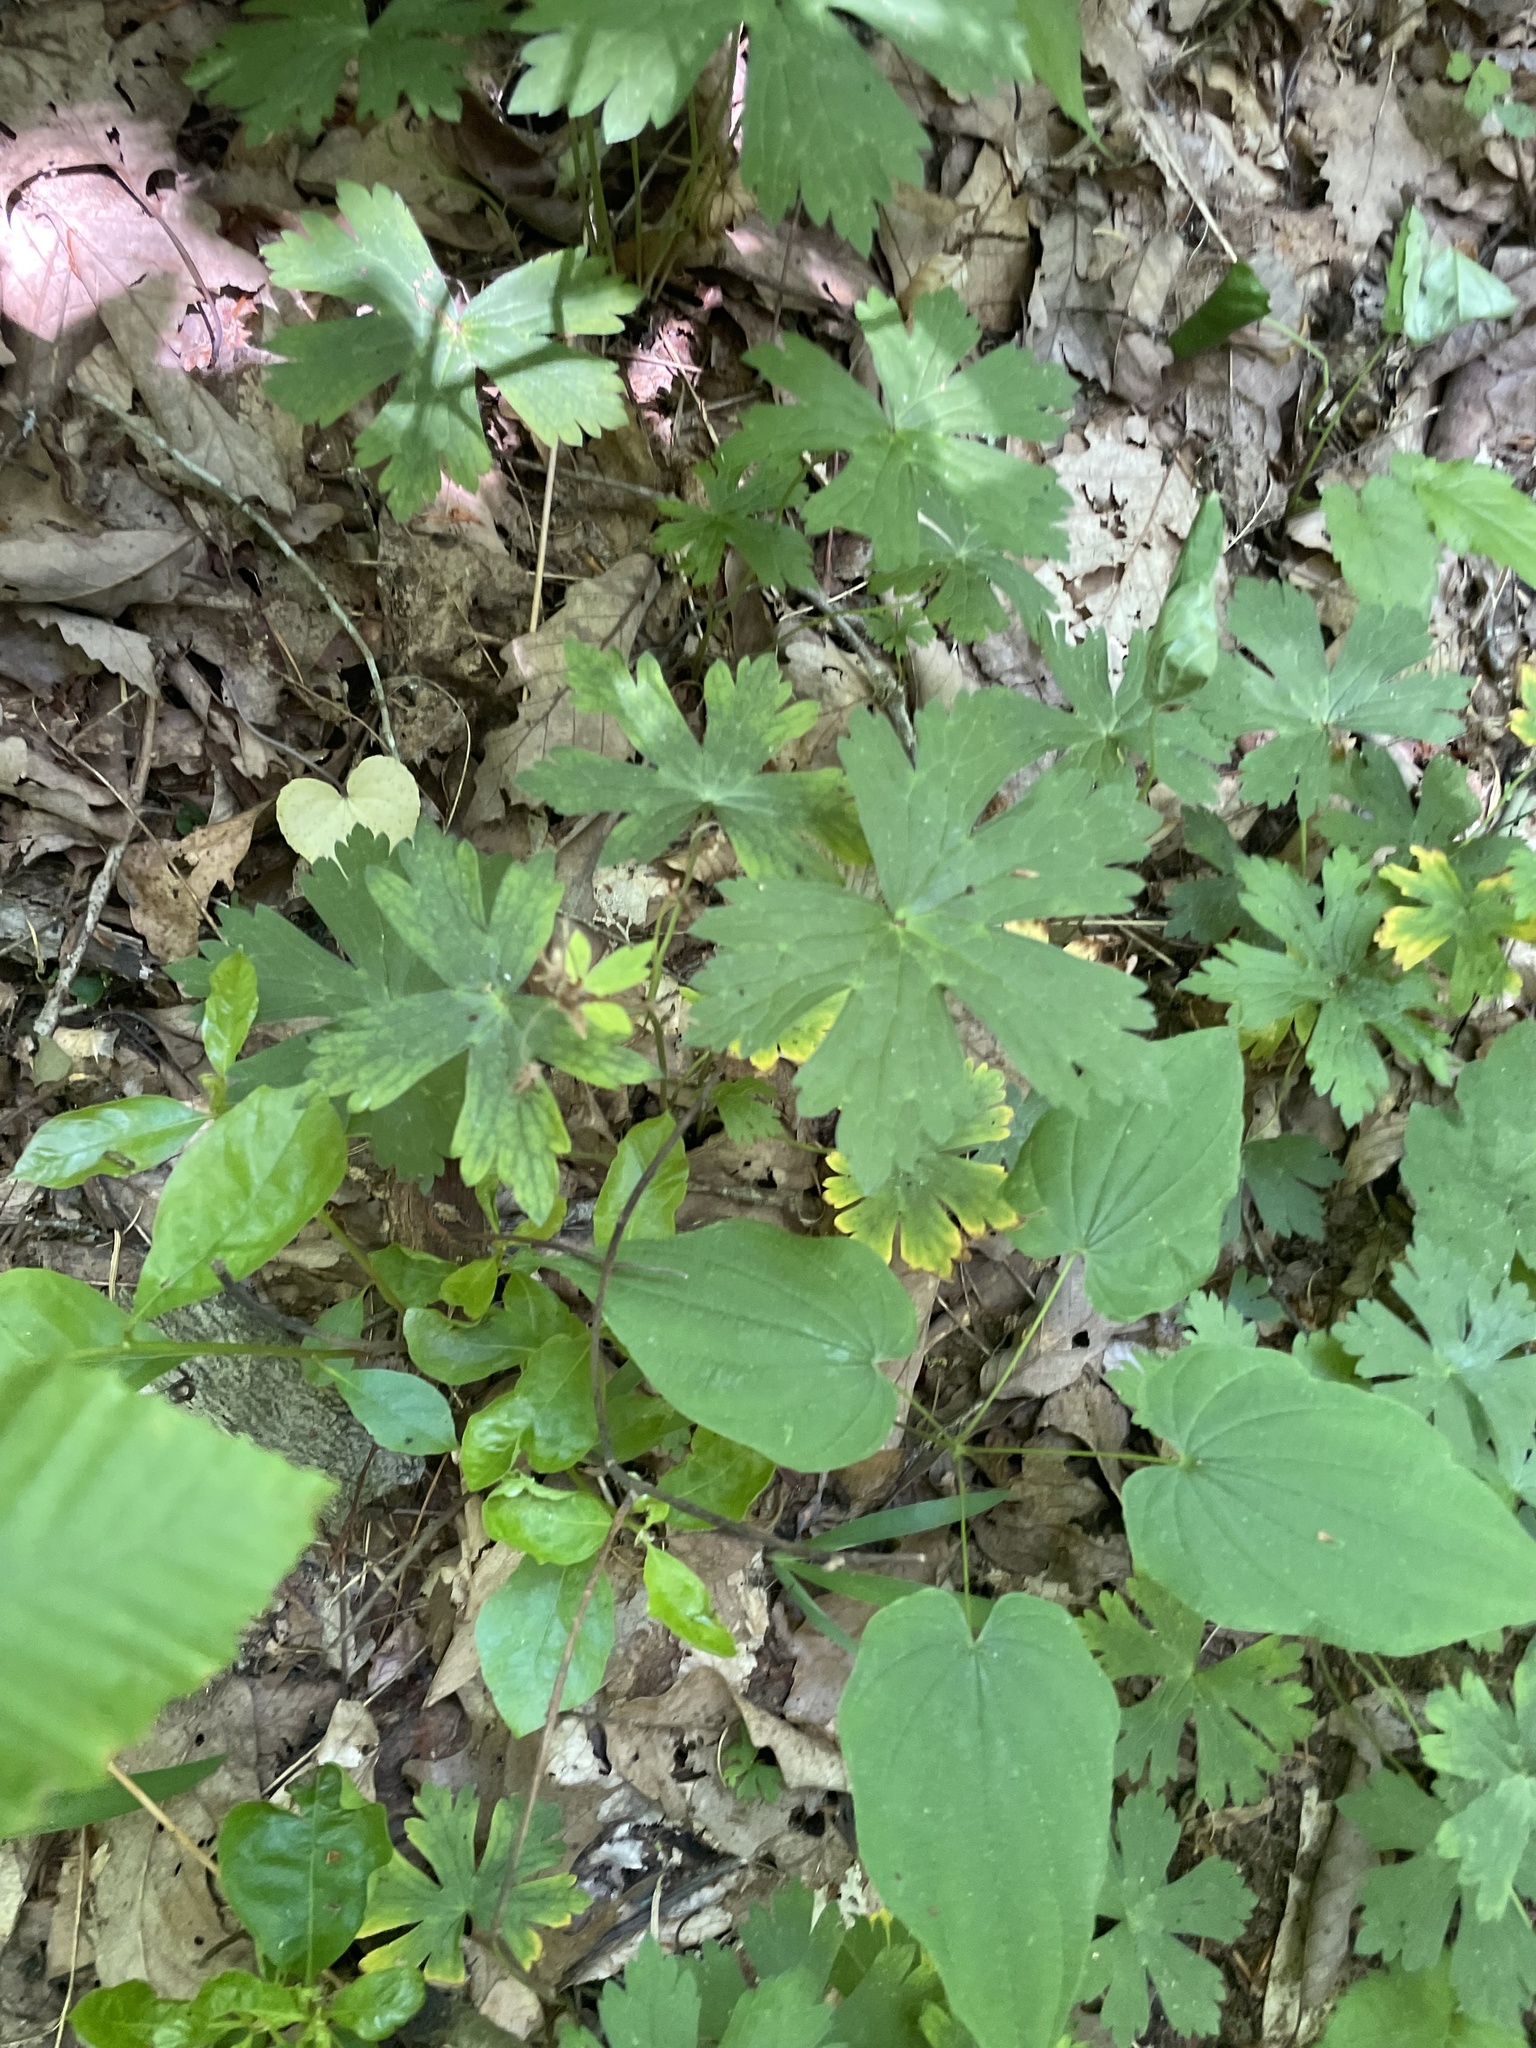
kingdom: Plantae
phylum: Tracheophyta
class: Magnoliopsida
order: Geraniales
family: Geraniaceae
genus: Geranium
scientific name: Geranium maculatum
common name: Spotted geranium
